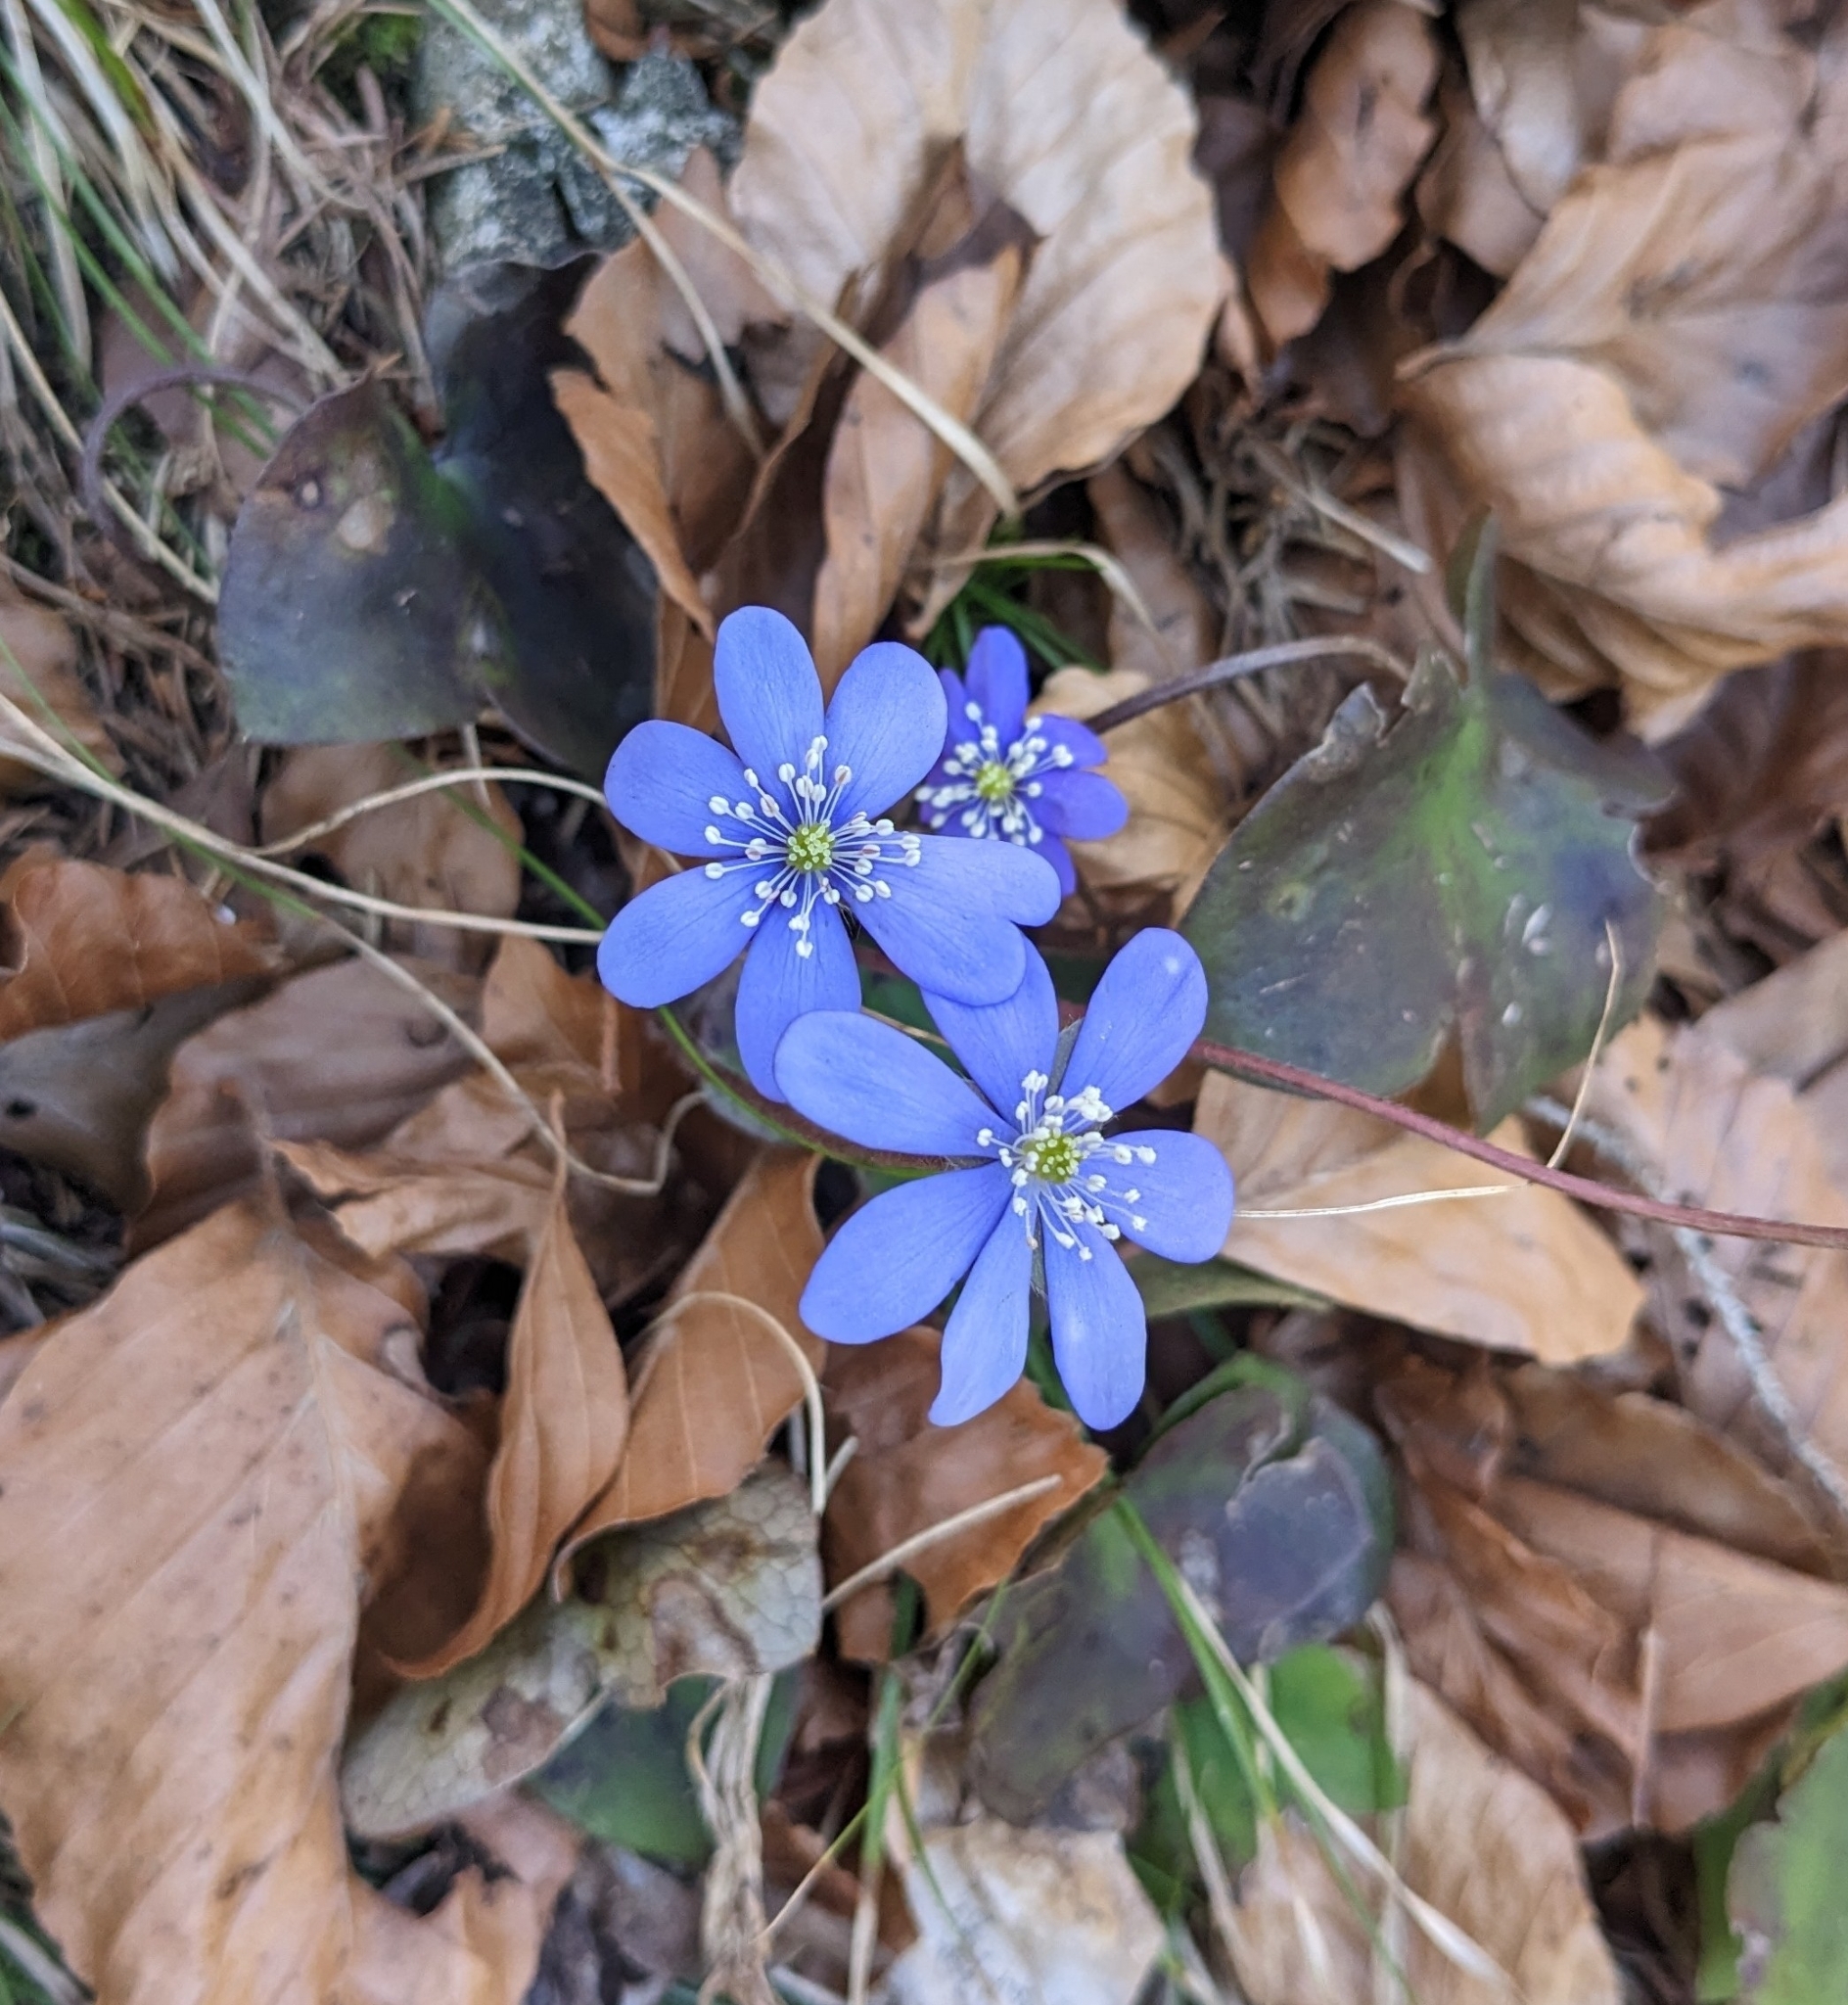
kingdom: Plantae
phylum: Tracheophyta
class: Magnoliopsida
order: Ranunculales
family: Ranunculaceae
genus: Hepatica
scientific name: Hepatica nobilis
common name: Liverleaf
